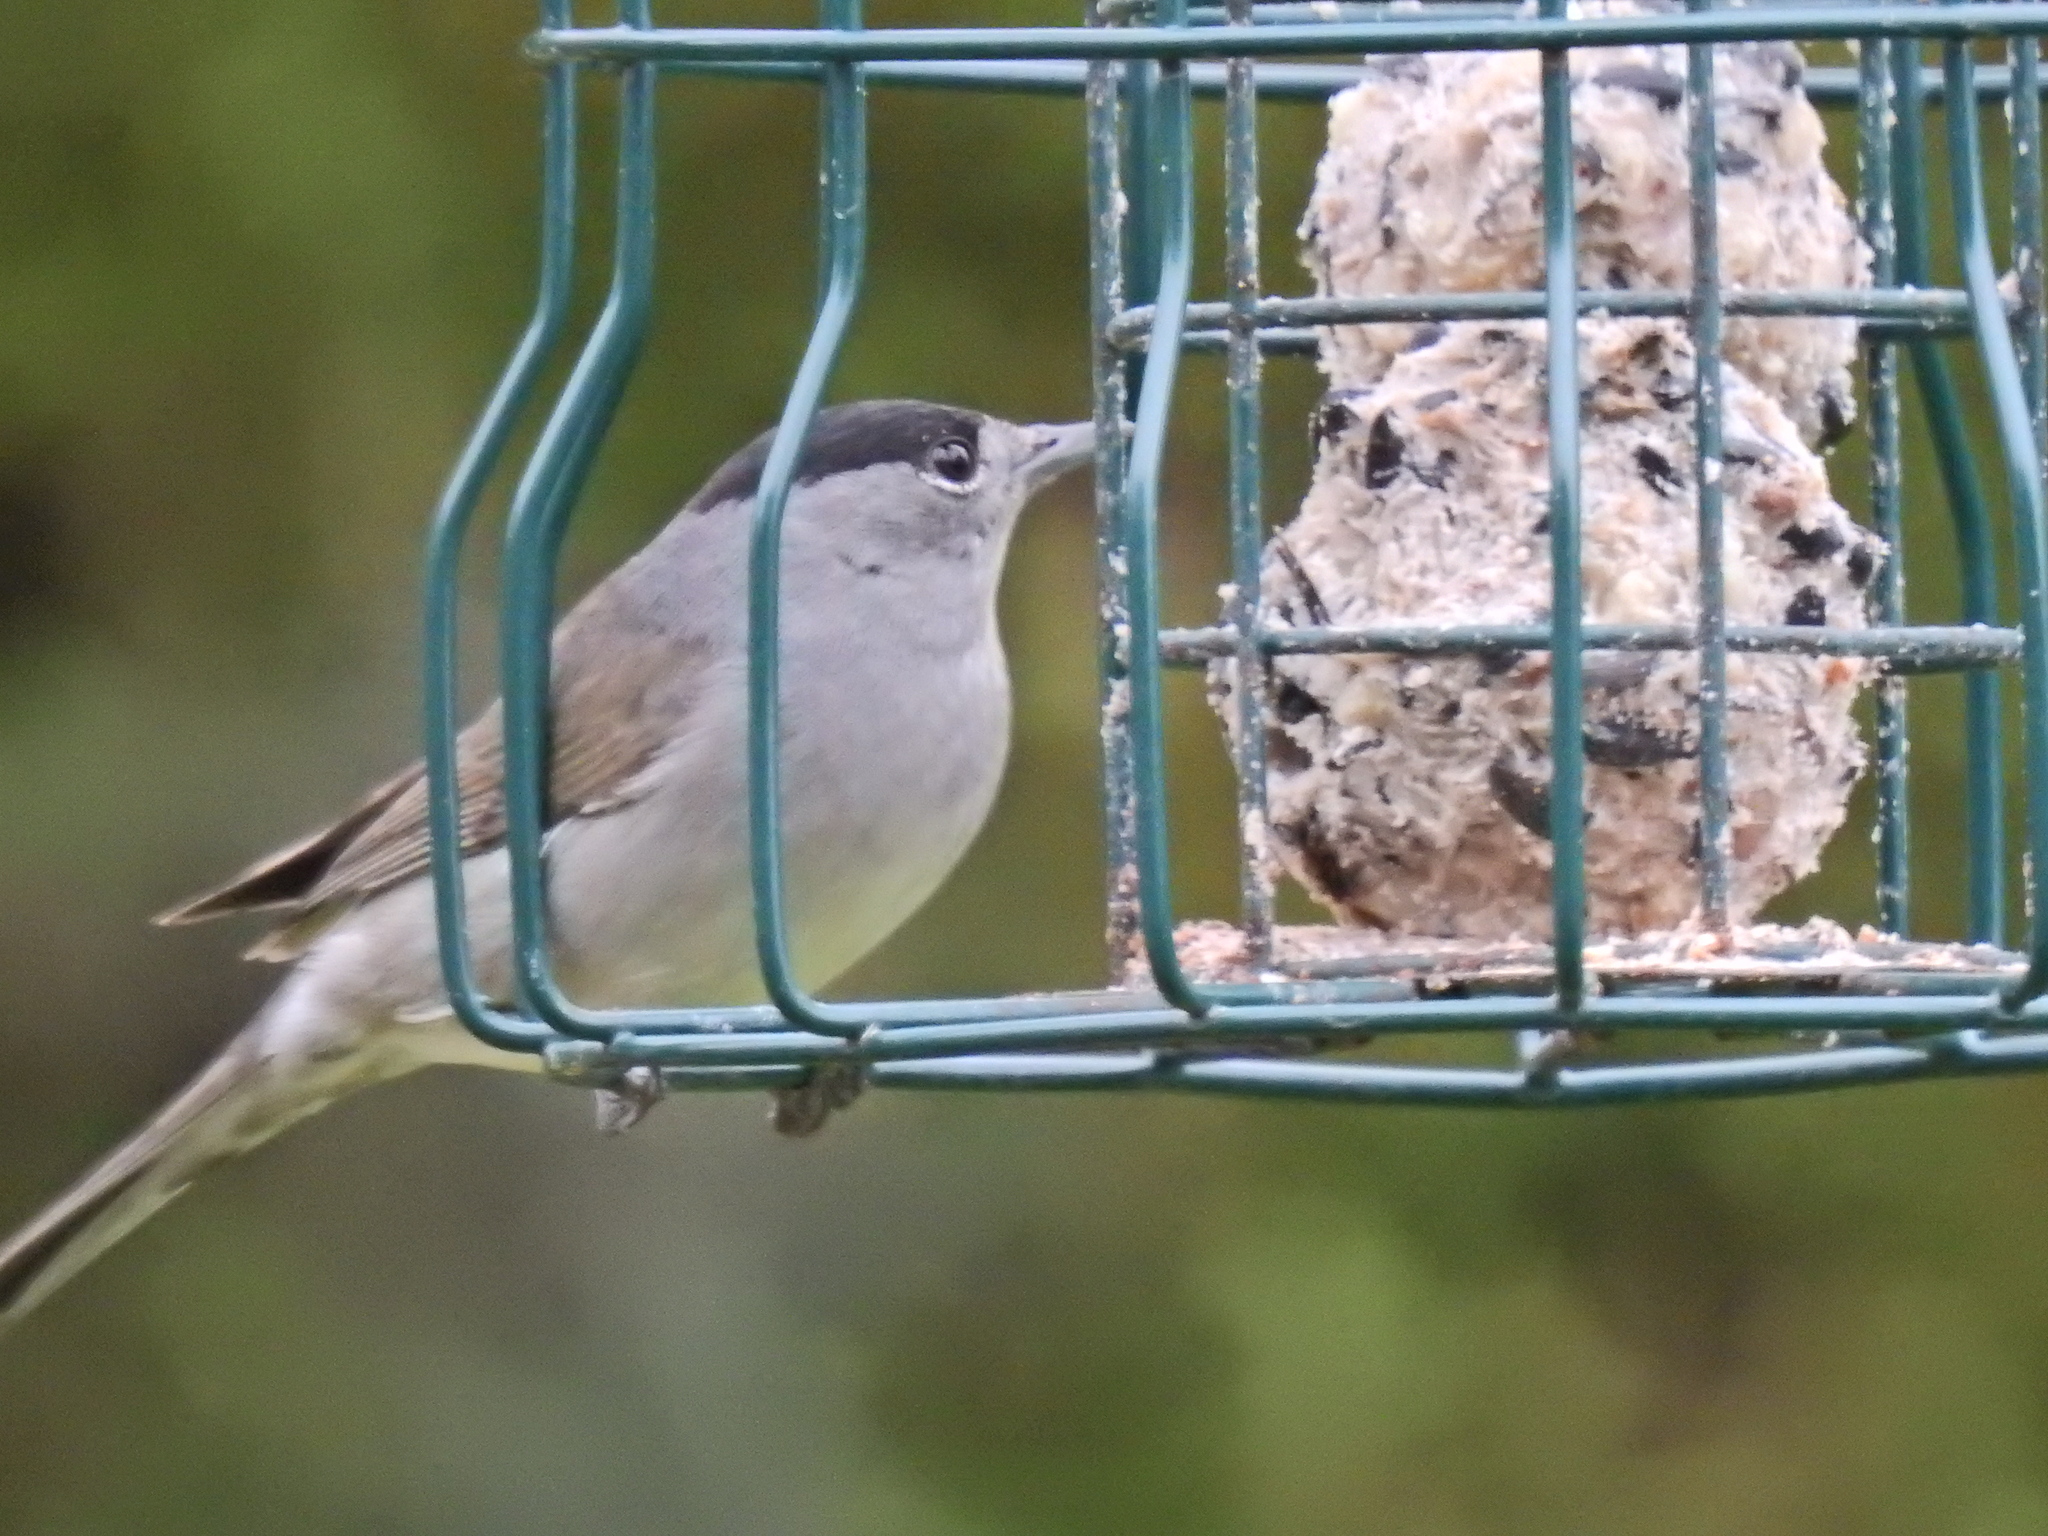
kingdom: Animalia
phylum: Chordata
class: Aves
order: Passeriformes
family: Sylviidae
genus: Sylvia
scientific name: Sylvia atricapilla
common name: Eurasian blackcap
